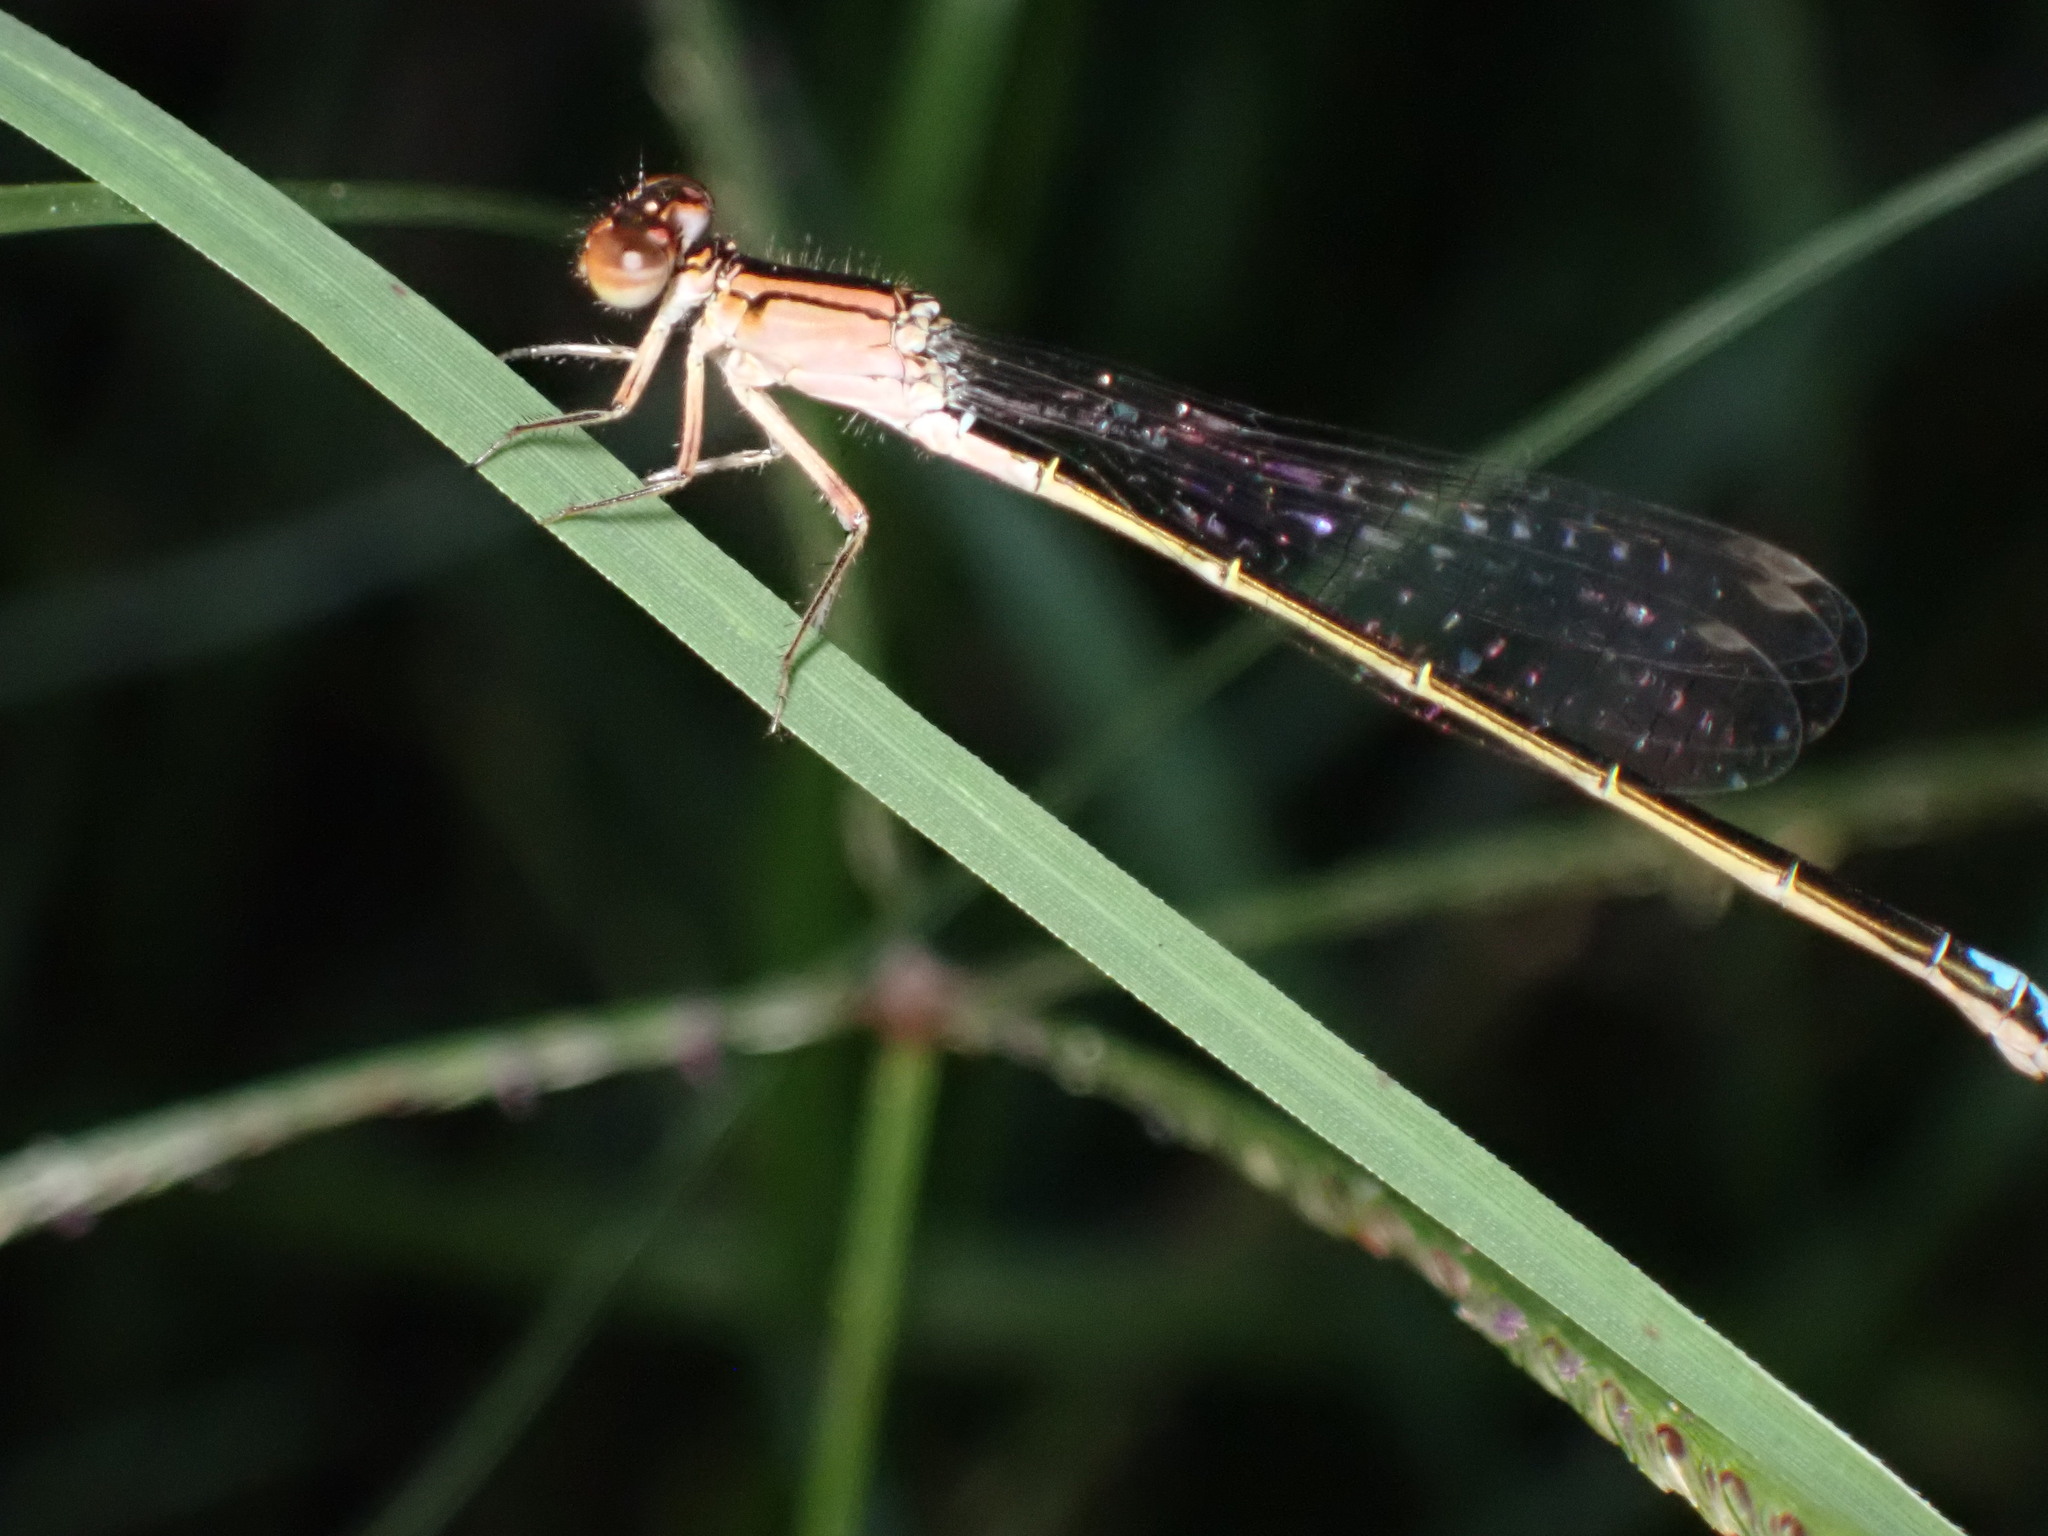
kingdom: Animalia
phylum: Arthropoda
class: Insecta
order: Odonata
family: Coenagrionidae
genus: Ischnura
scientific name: Ischnura denticollis
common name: Black-fronted forktail
